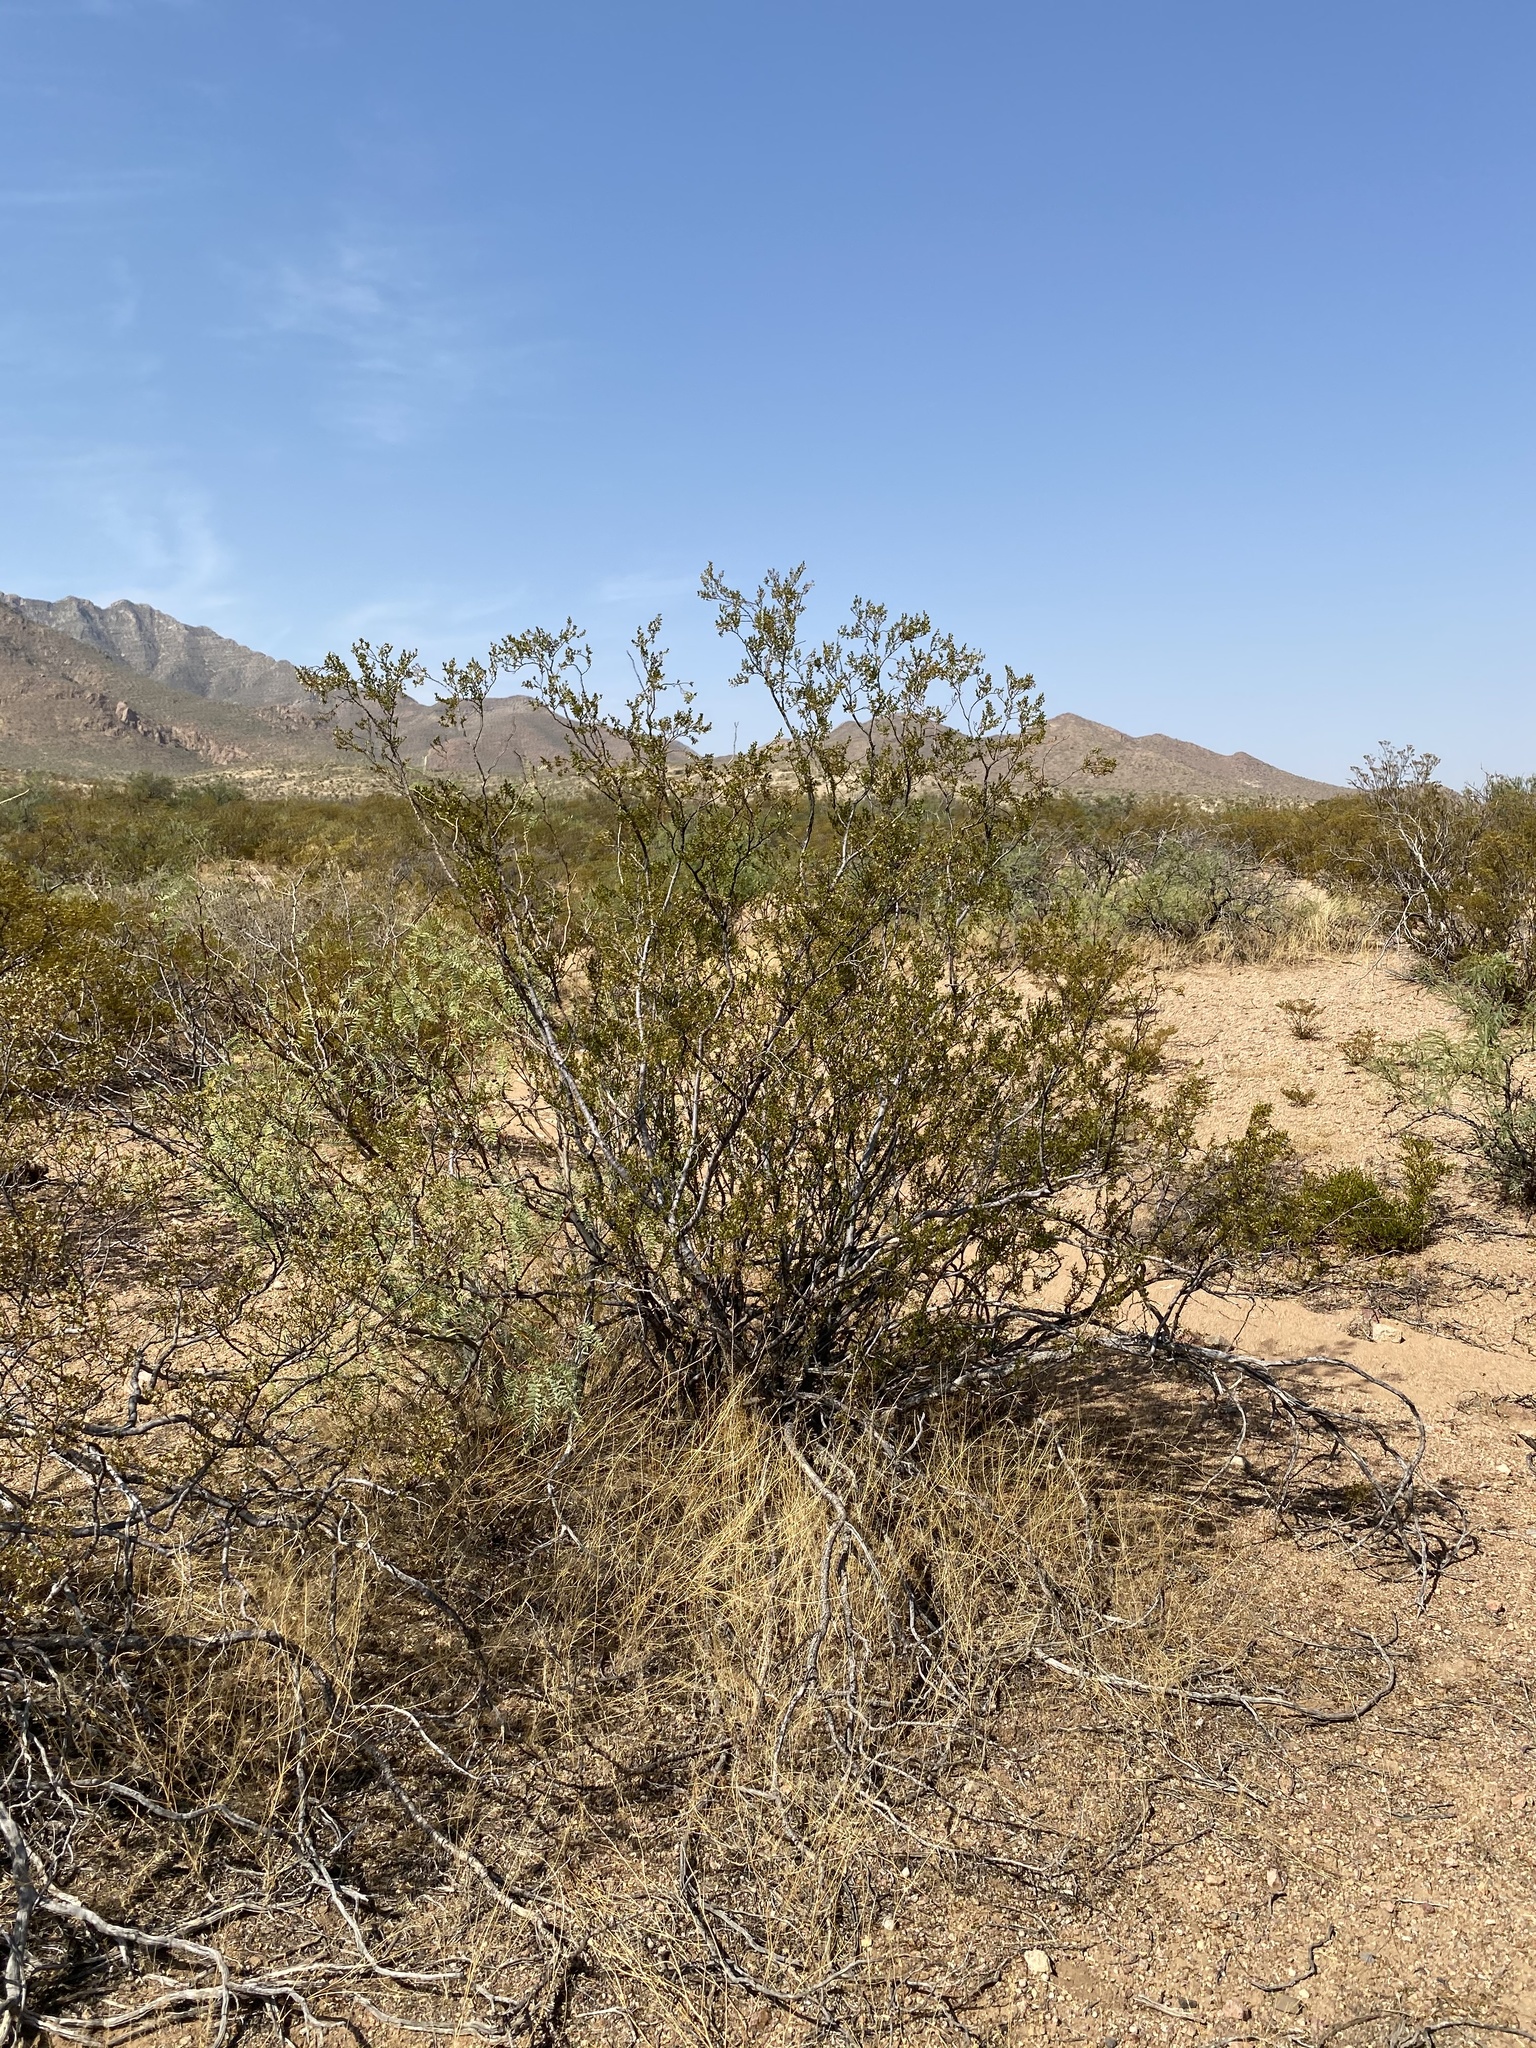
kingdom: Plantae
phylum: Tracheophyta
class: Magnoliopsida
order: Zygophyllales
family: Zygophyllaceae
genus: Larrea
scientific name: Larrea tridentata
